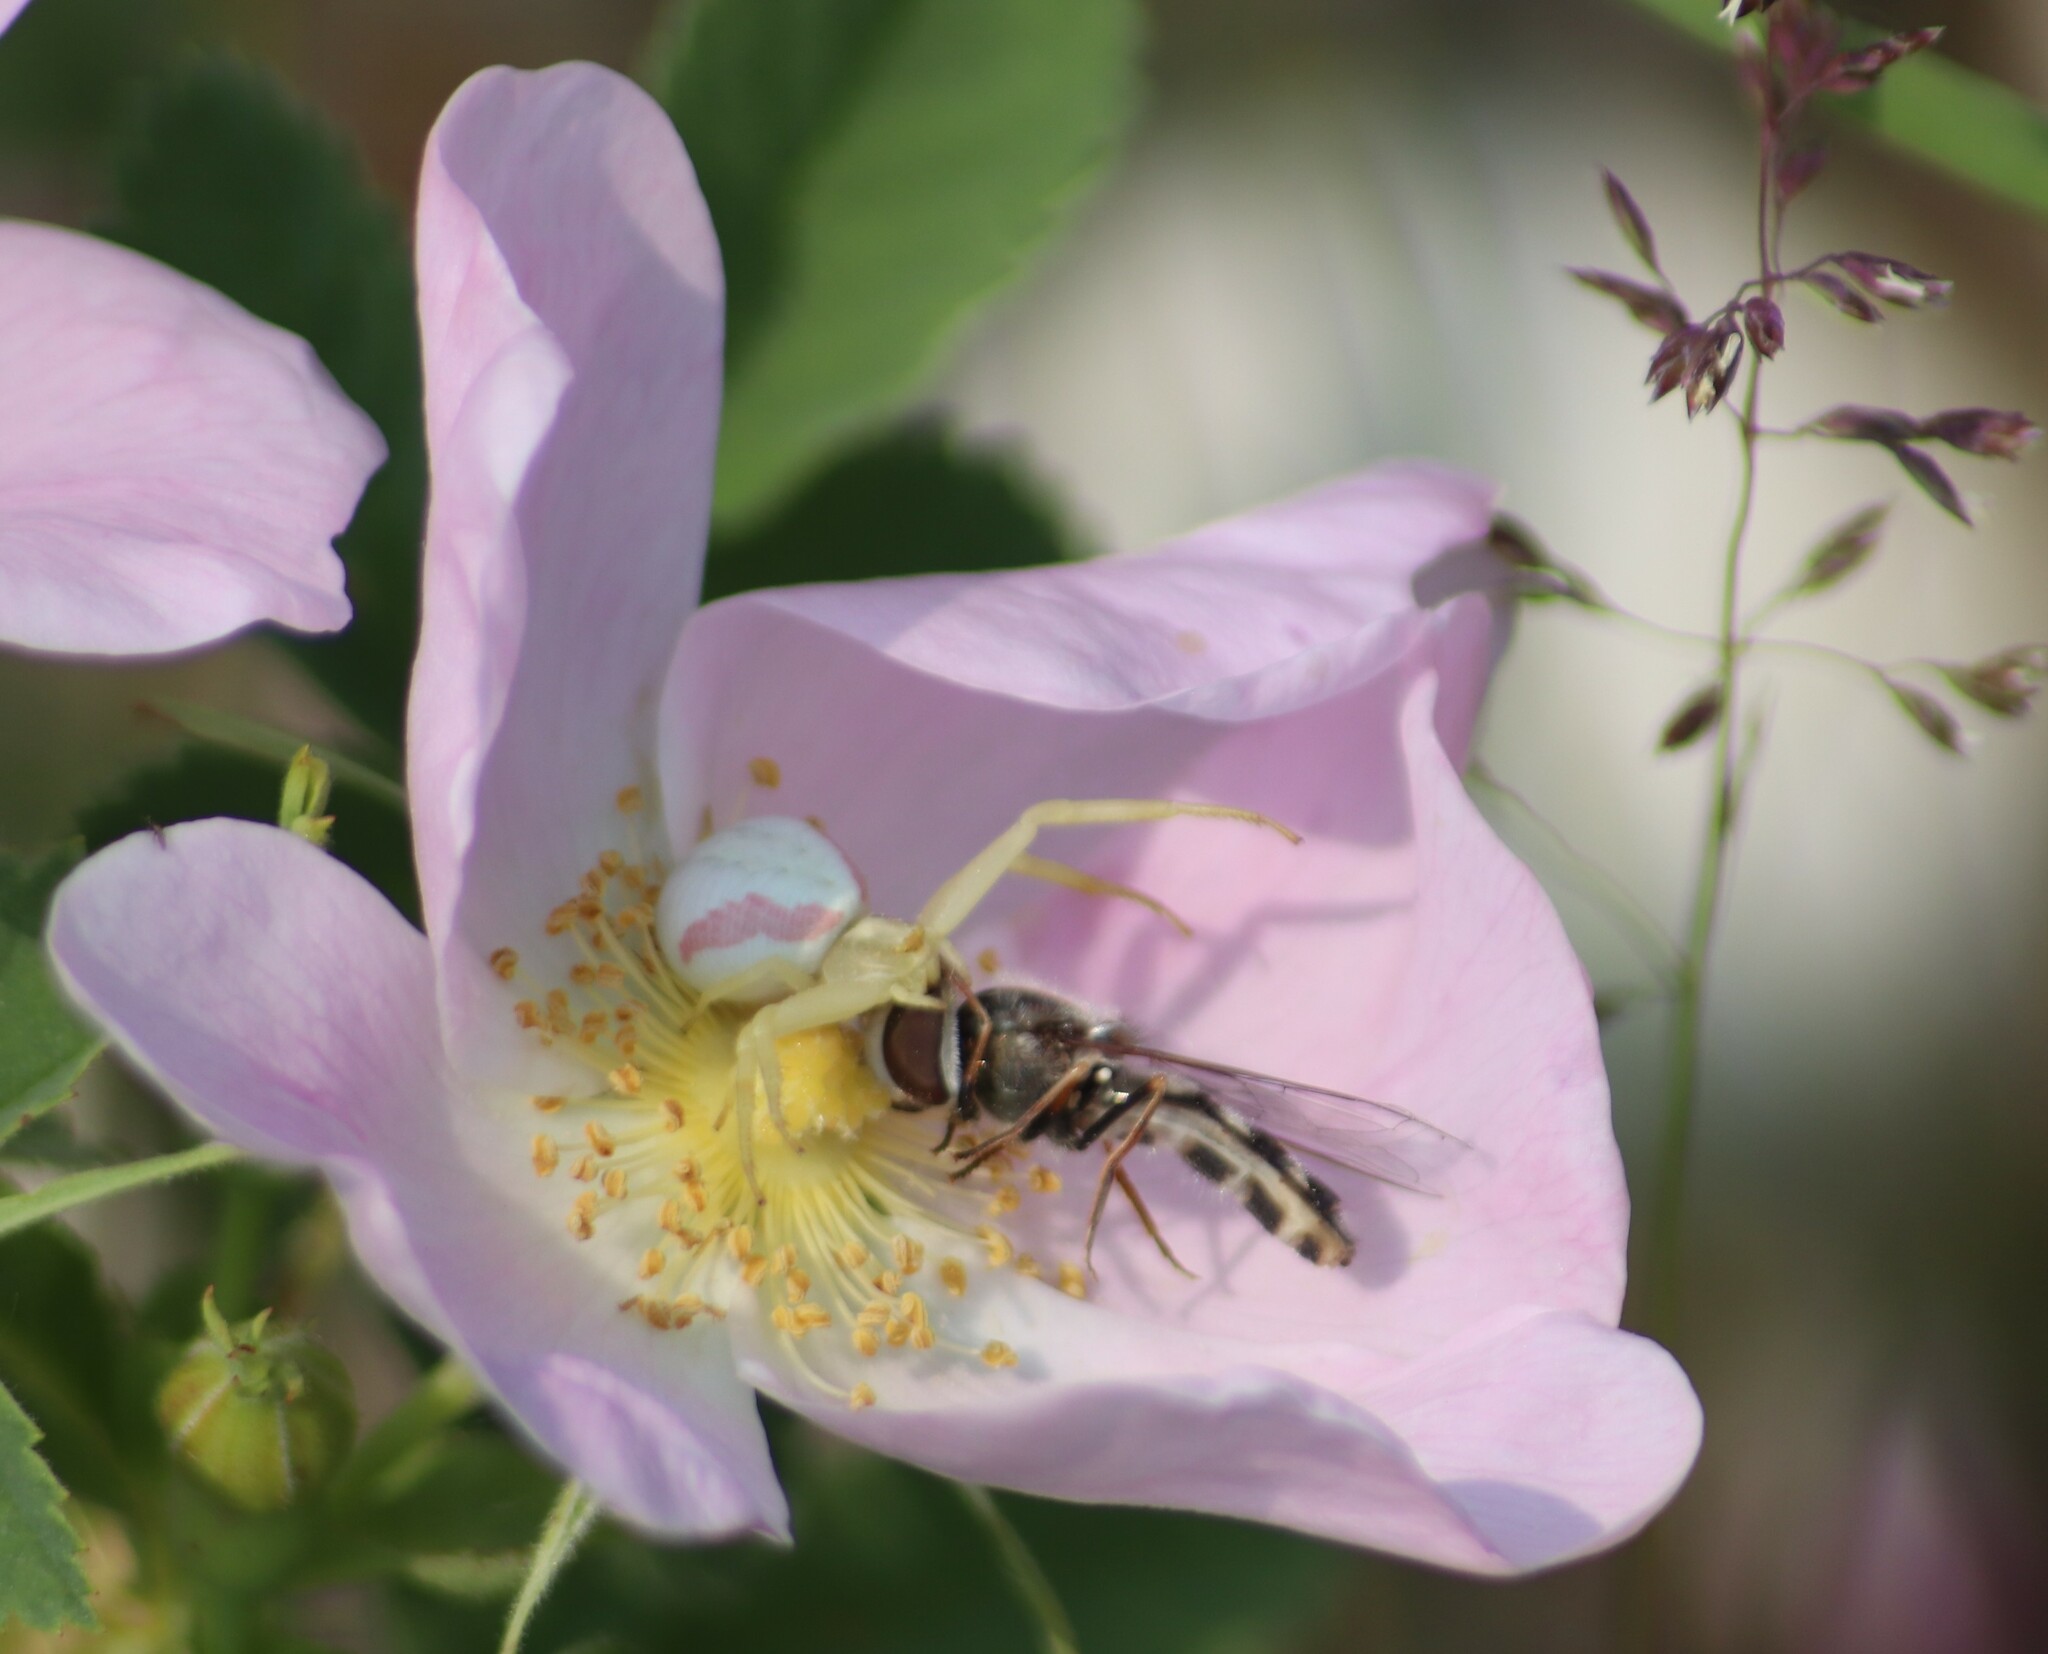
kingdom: Animalia
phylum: Arthropoda
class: Arachnida
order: Araneae
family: Thomisidae
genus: Misumena
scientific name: Misumena vatia
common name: Goldenrod crab spider
